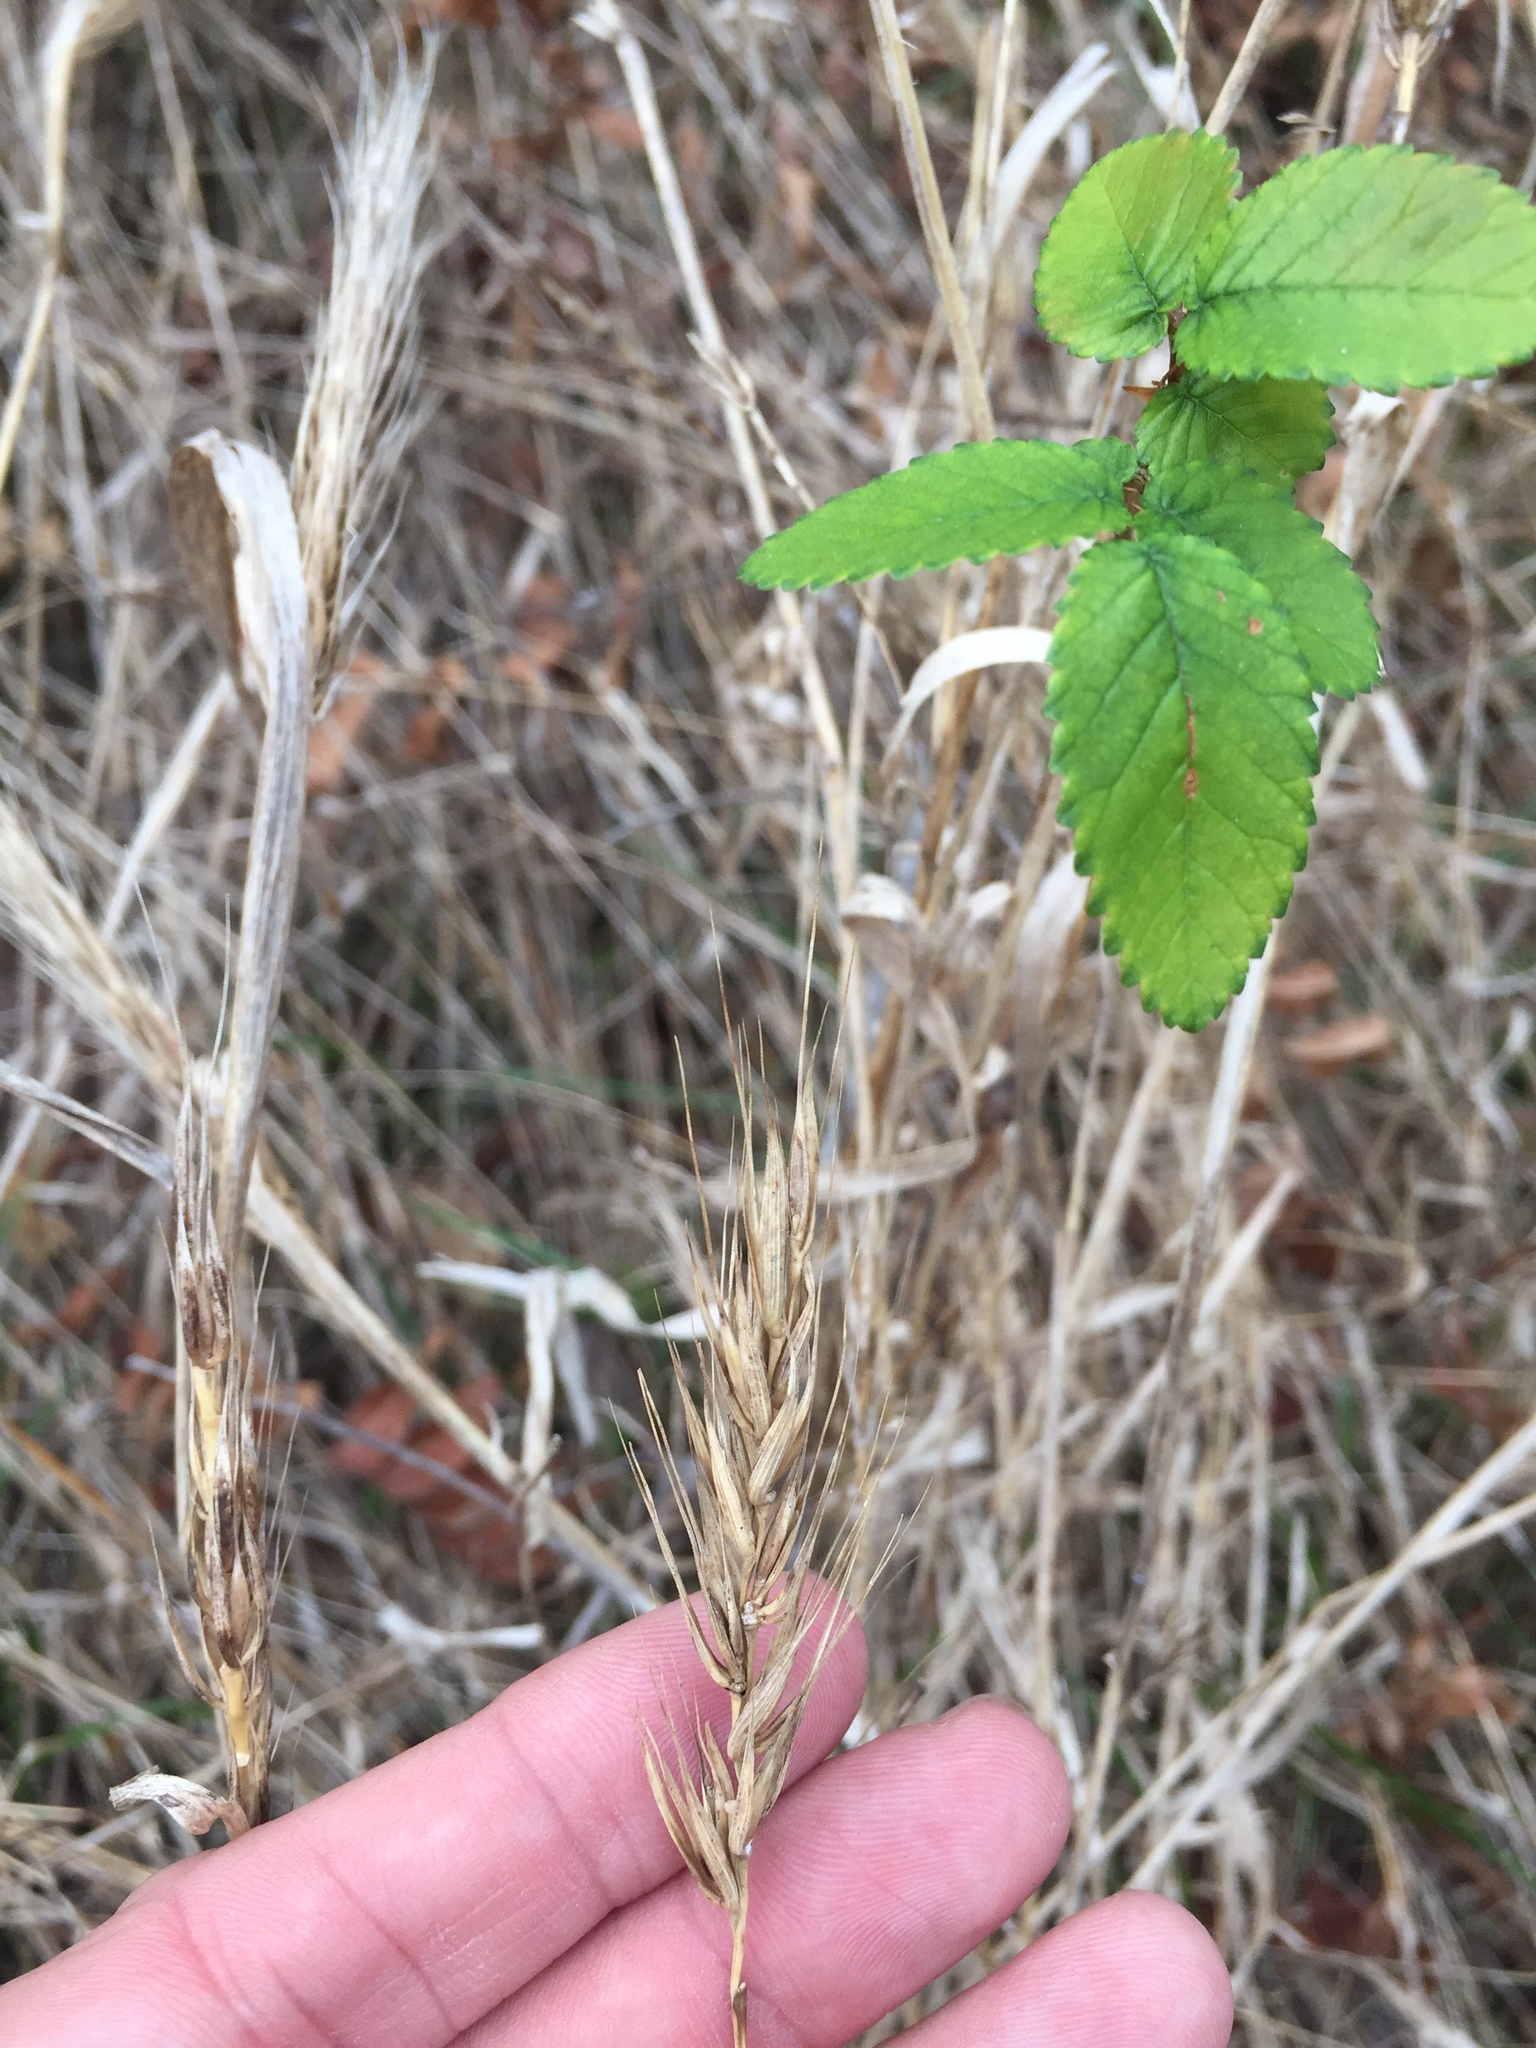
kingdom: Plantae
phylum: Tracheophyta
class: Liliopsida
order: Poales
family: Poaceae
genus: Elymus
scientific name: Elymus virginicus
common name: Common eastern wildrye
